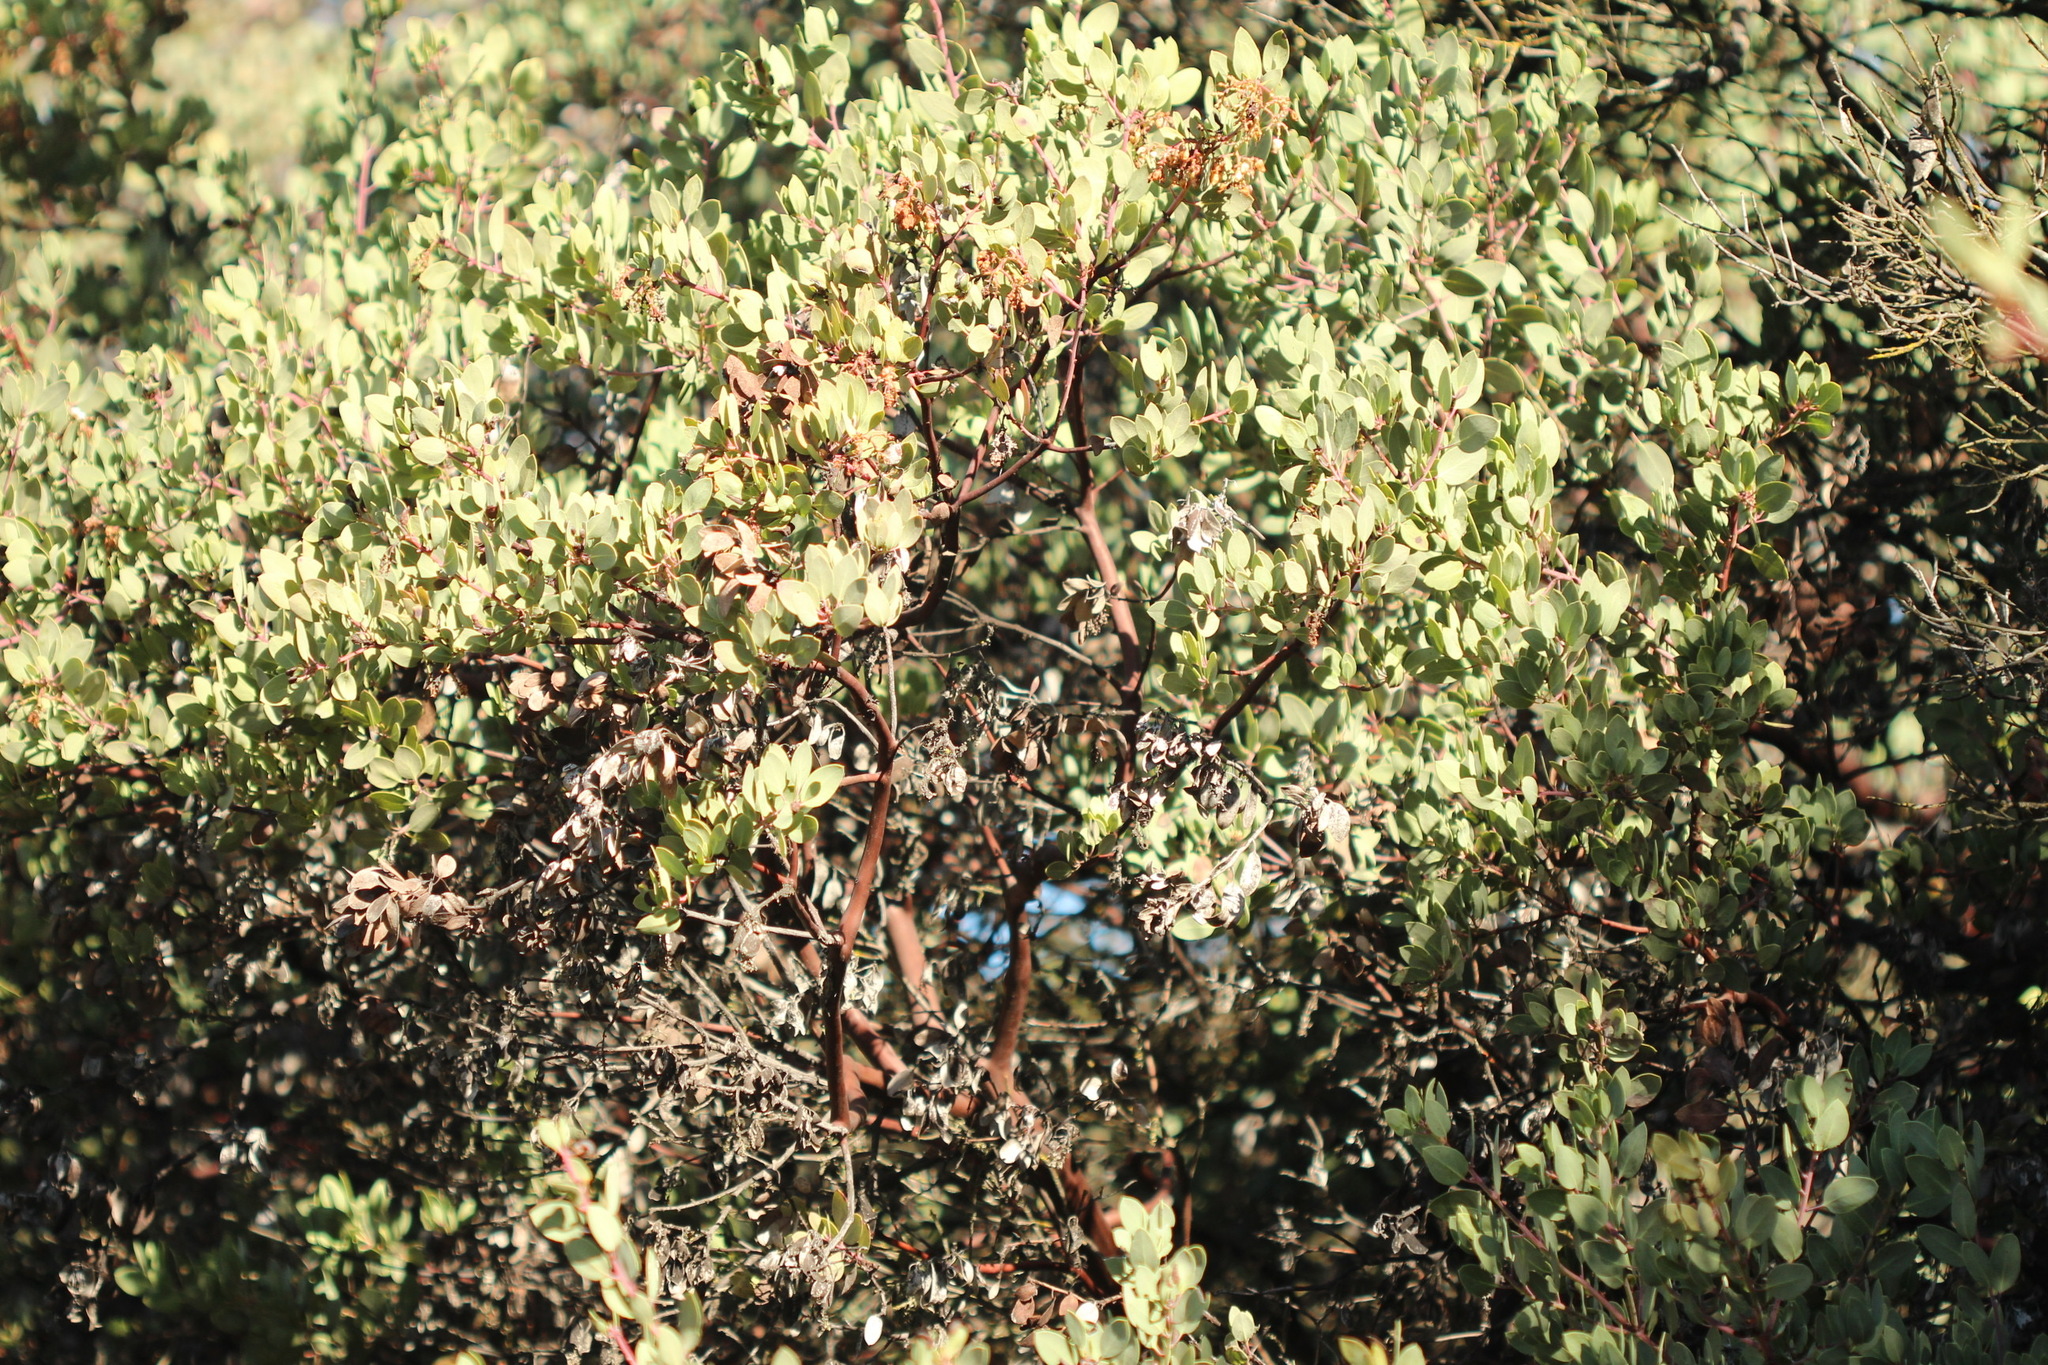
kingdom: Plantae
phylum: Tracheophyta
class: Magnoliopsida
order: Ericales
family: Ericaceae
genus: Arctostaphylos
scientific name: Arctostaphylos glauca
